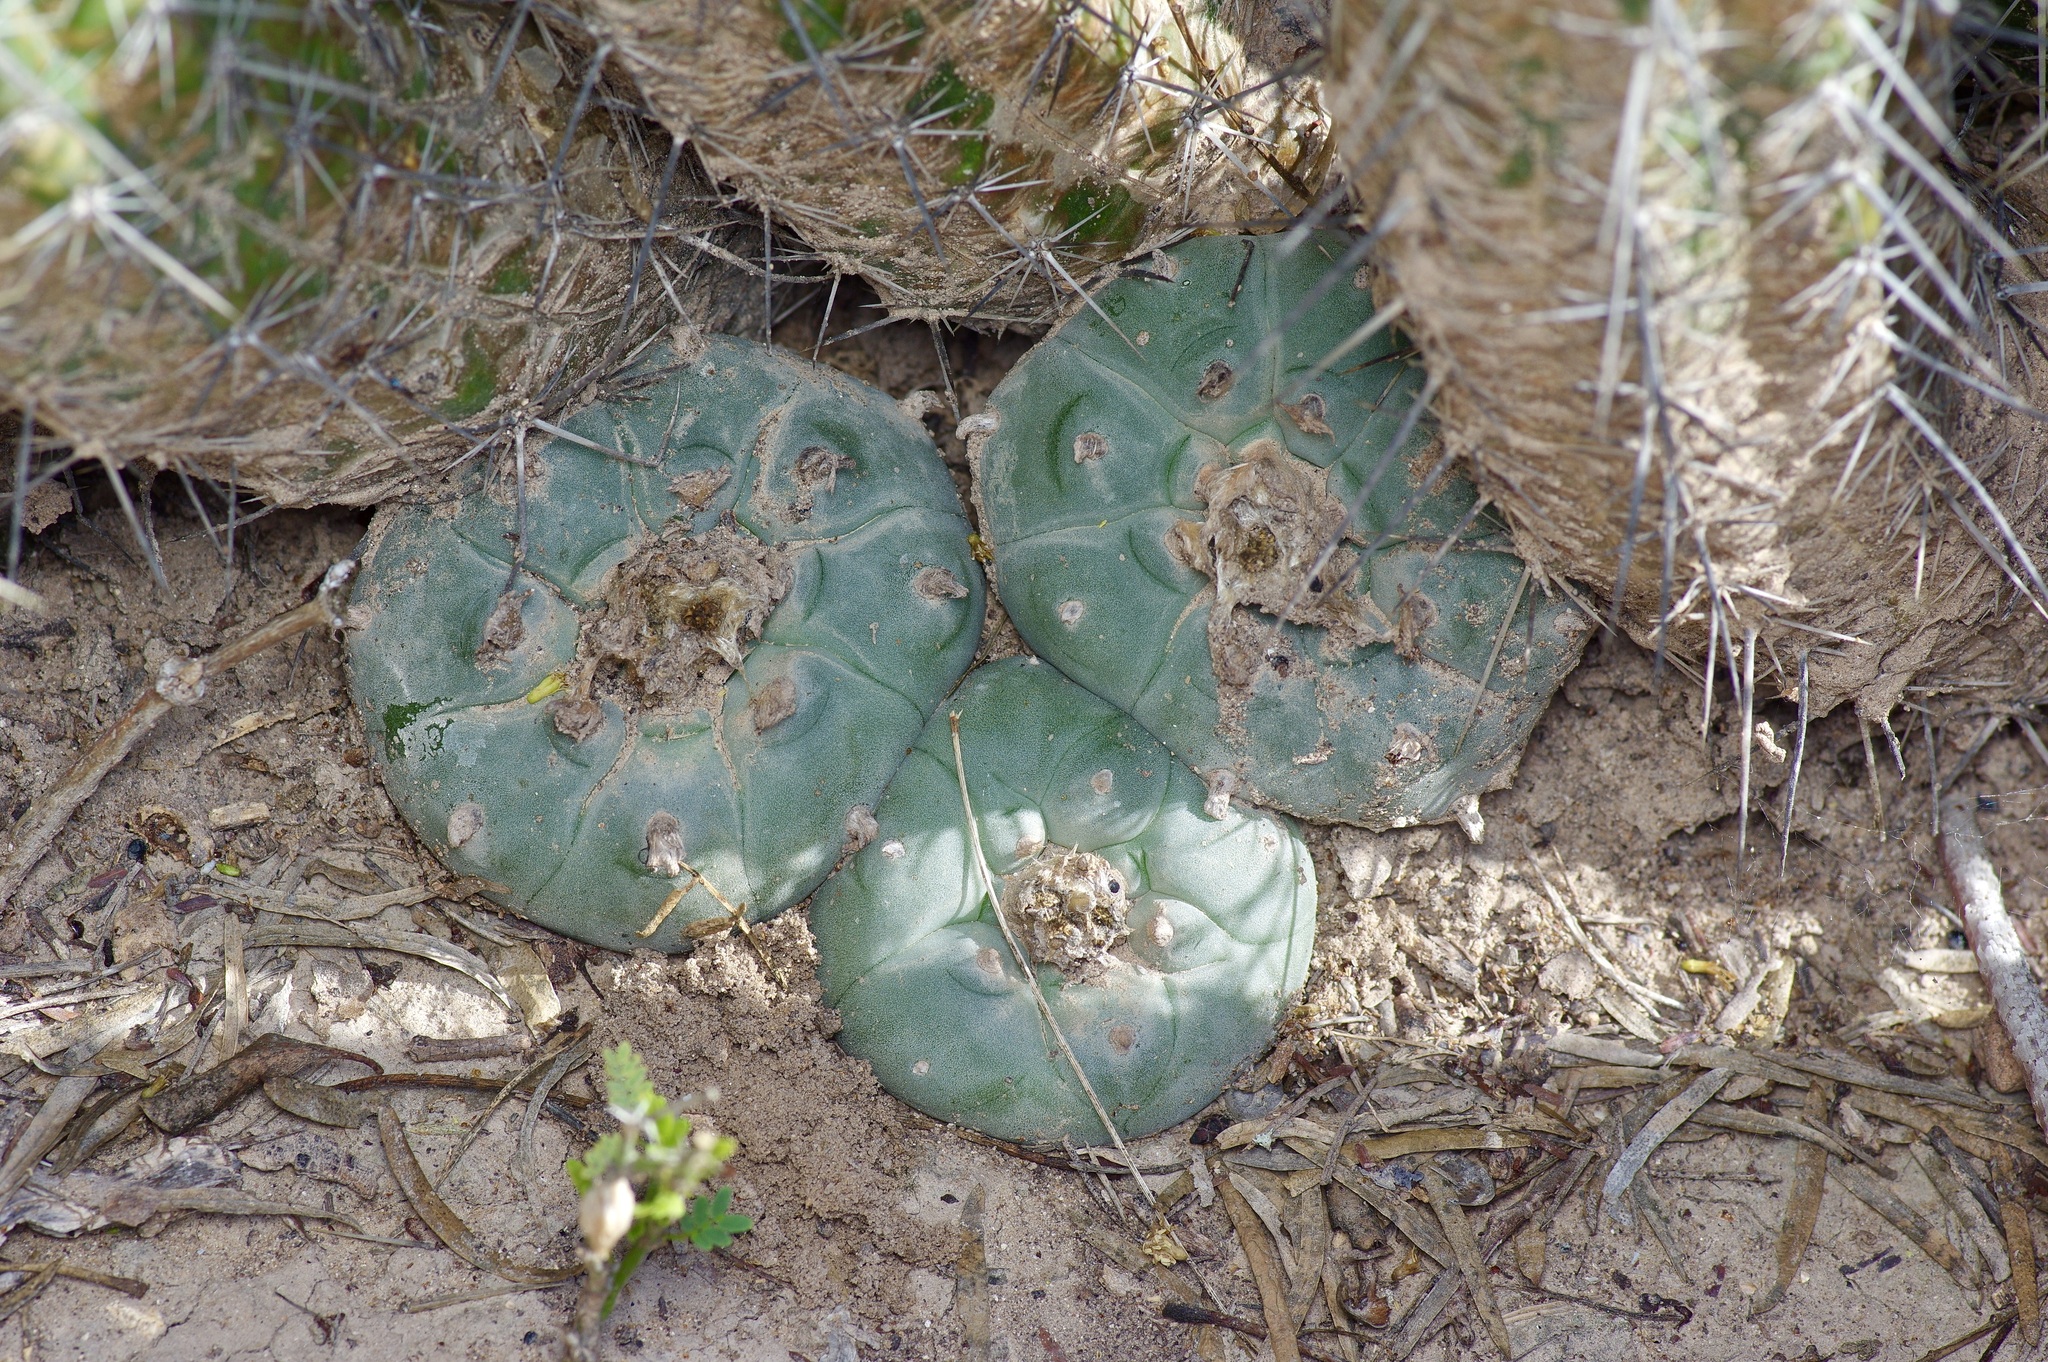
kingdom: Plantae
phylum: Tracheophyta
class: Magnoliopsida
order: Caryophyllales
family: Cactaceae
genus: Lophophora
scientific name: Lophophora williamsii
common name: Indian-dope
